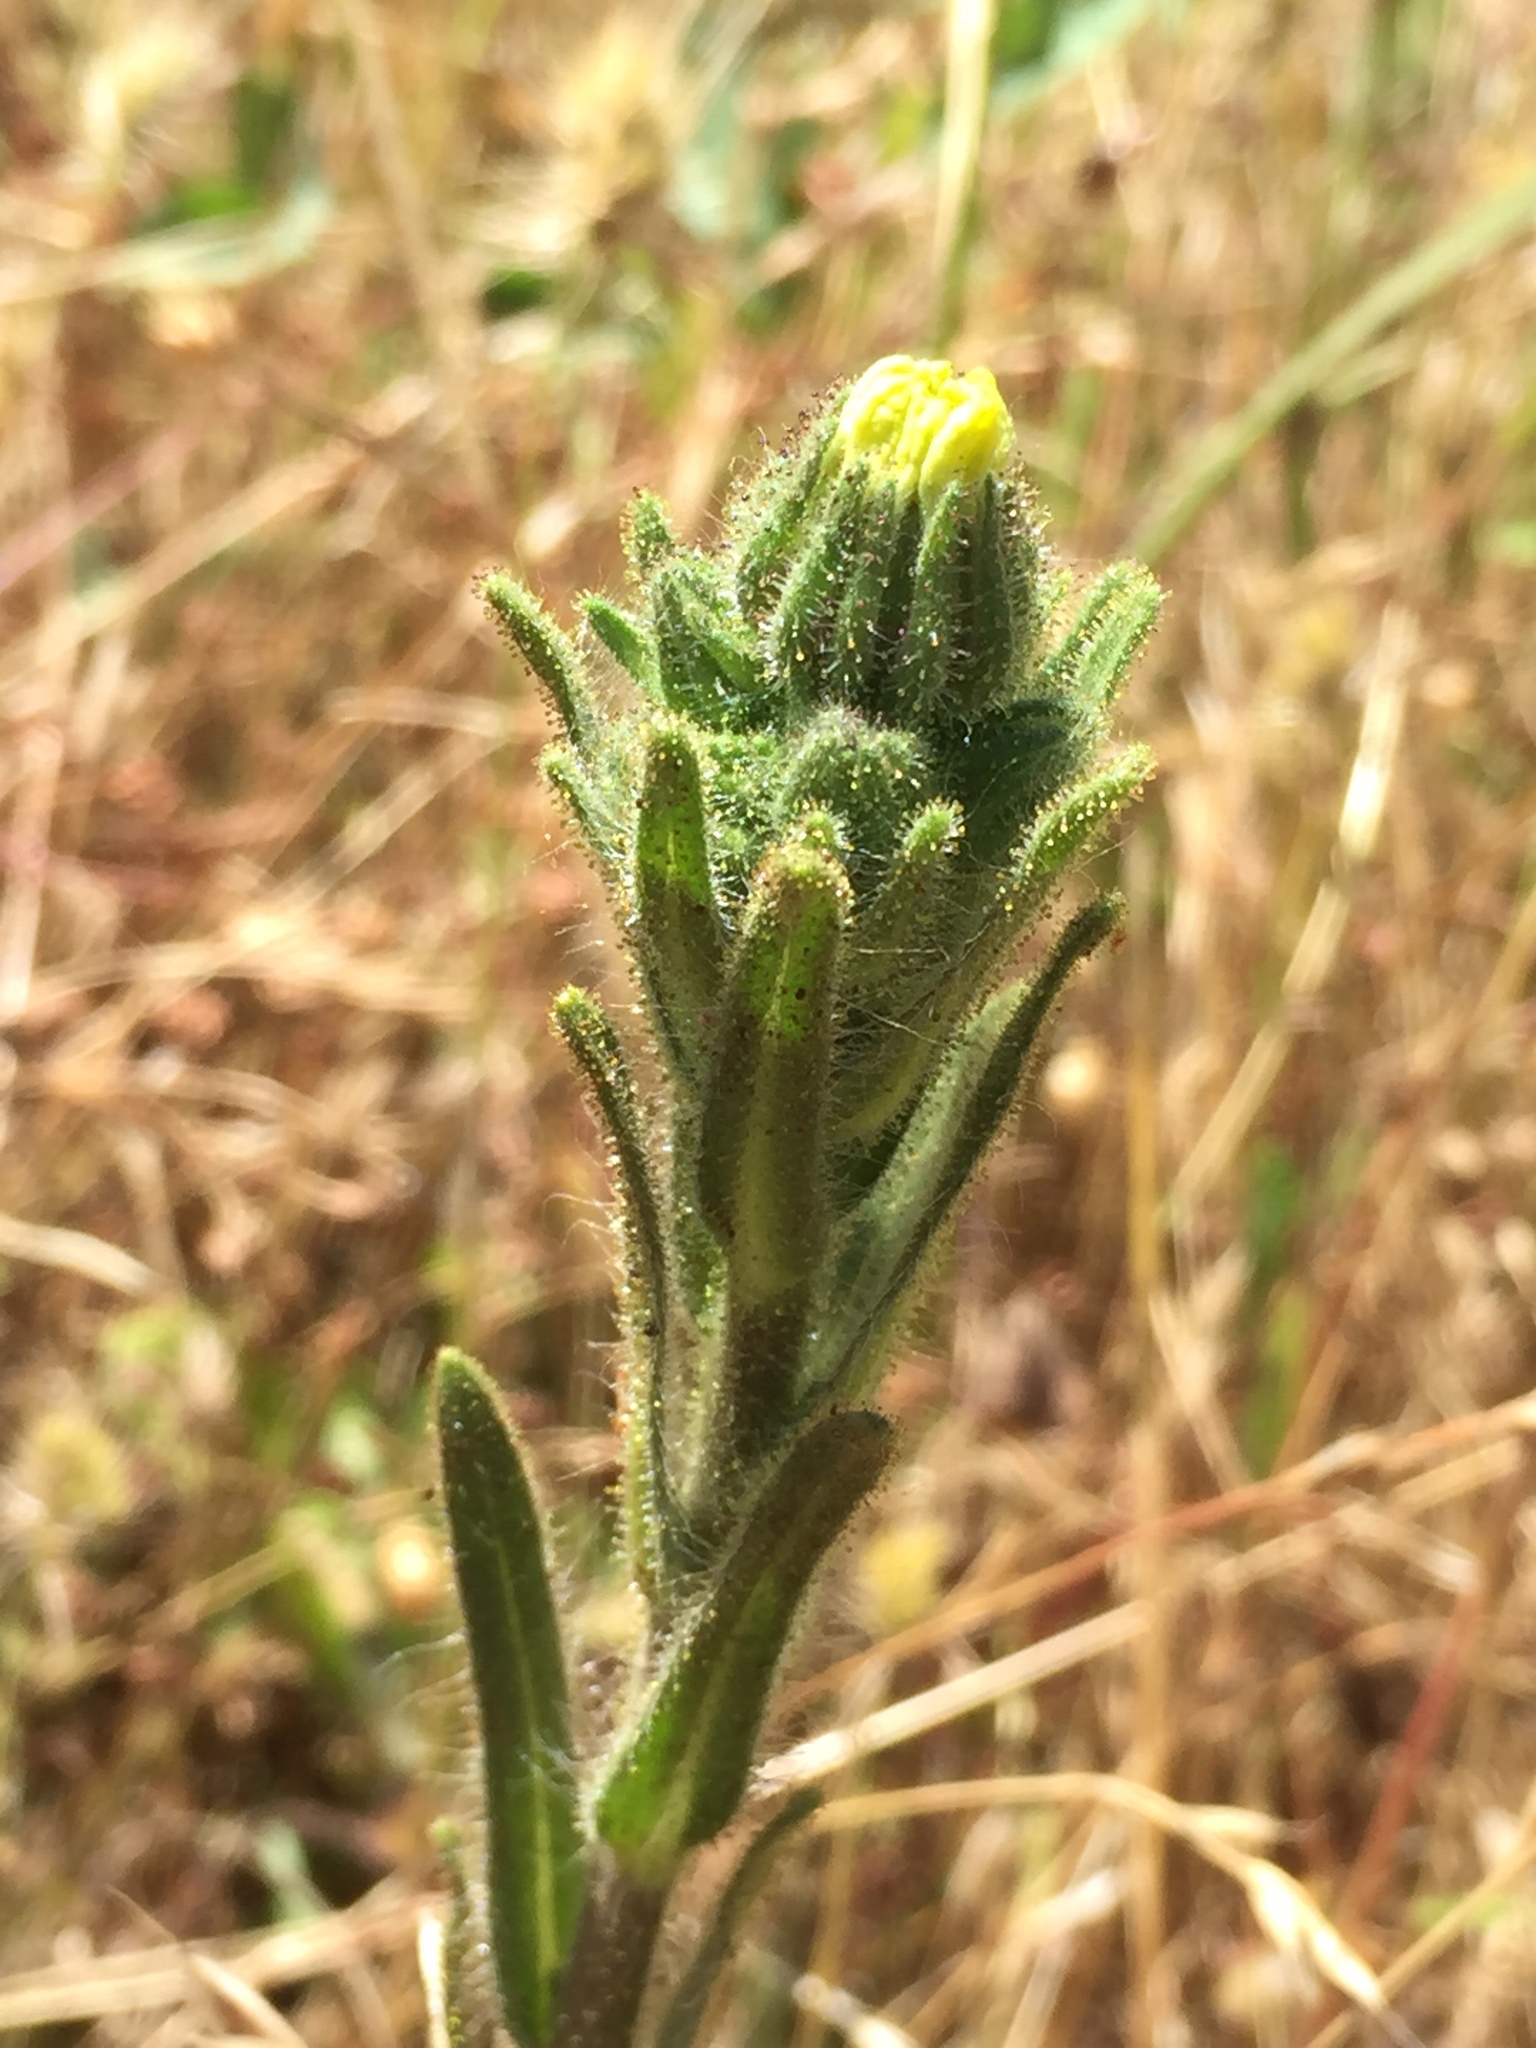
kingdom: Plantae
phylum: Tracheophyta
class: Magnoliopsida
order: Asterales
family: Asteraceae
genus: Madia
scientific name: Madia sativa
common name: Coast tarweed
